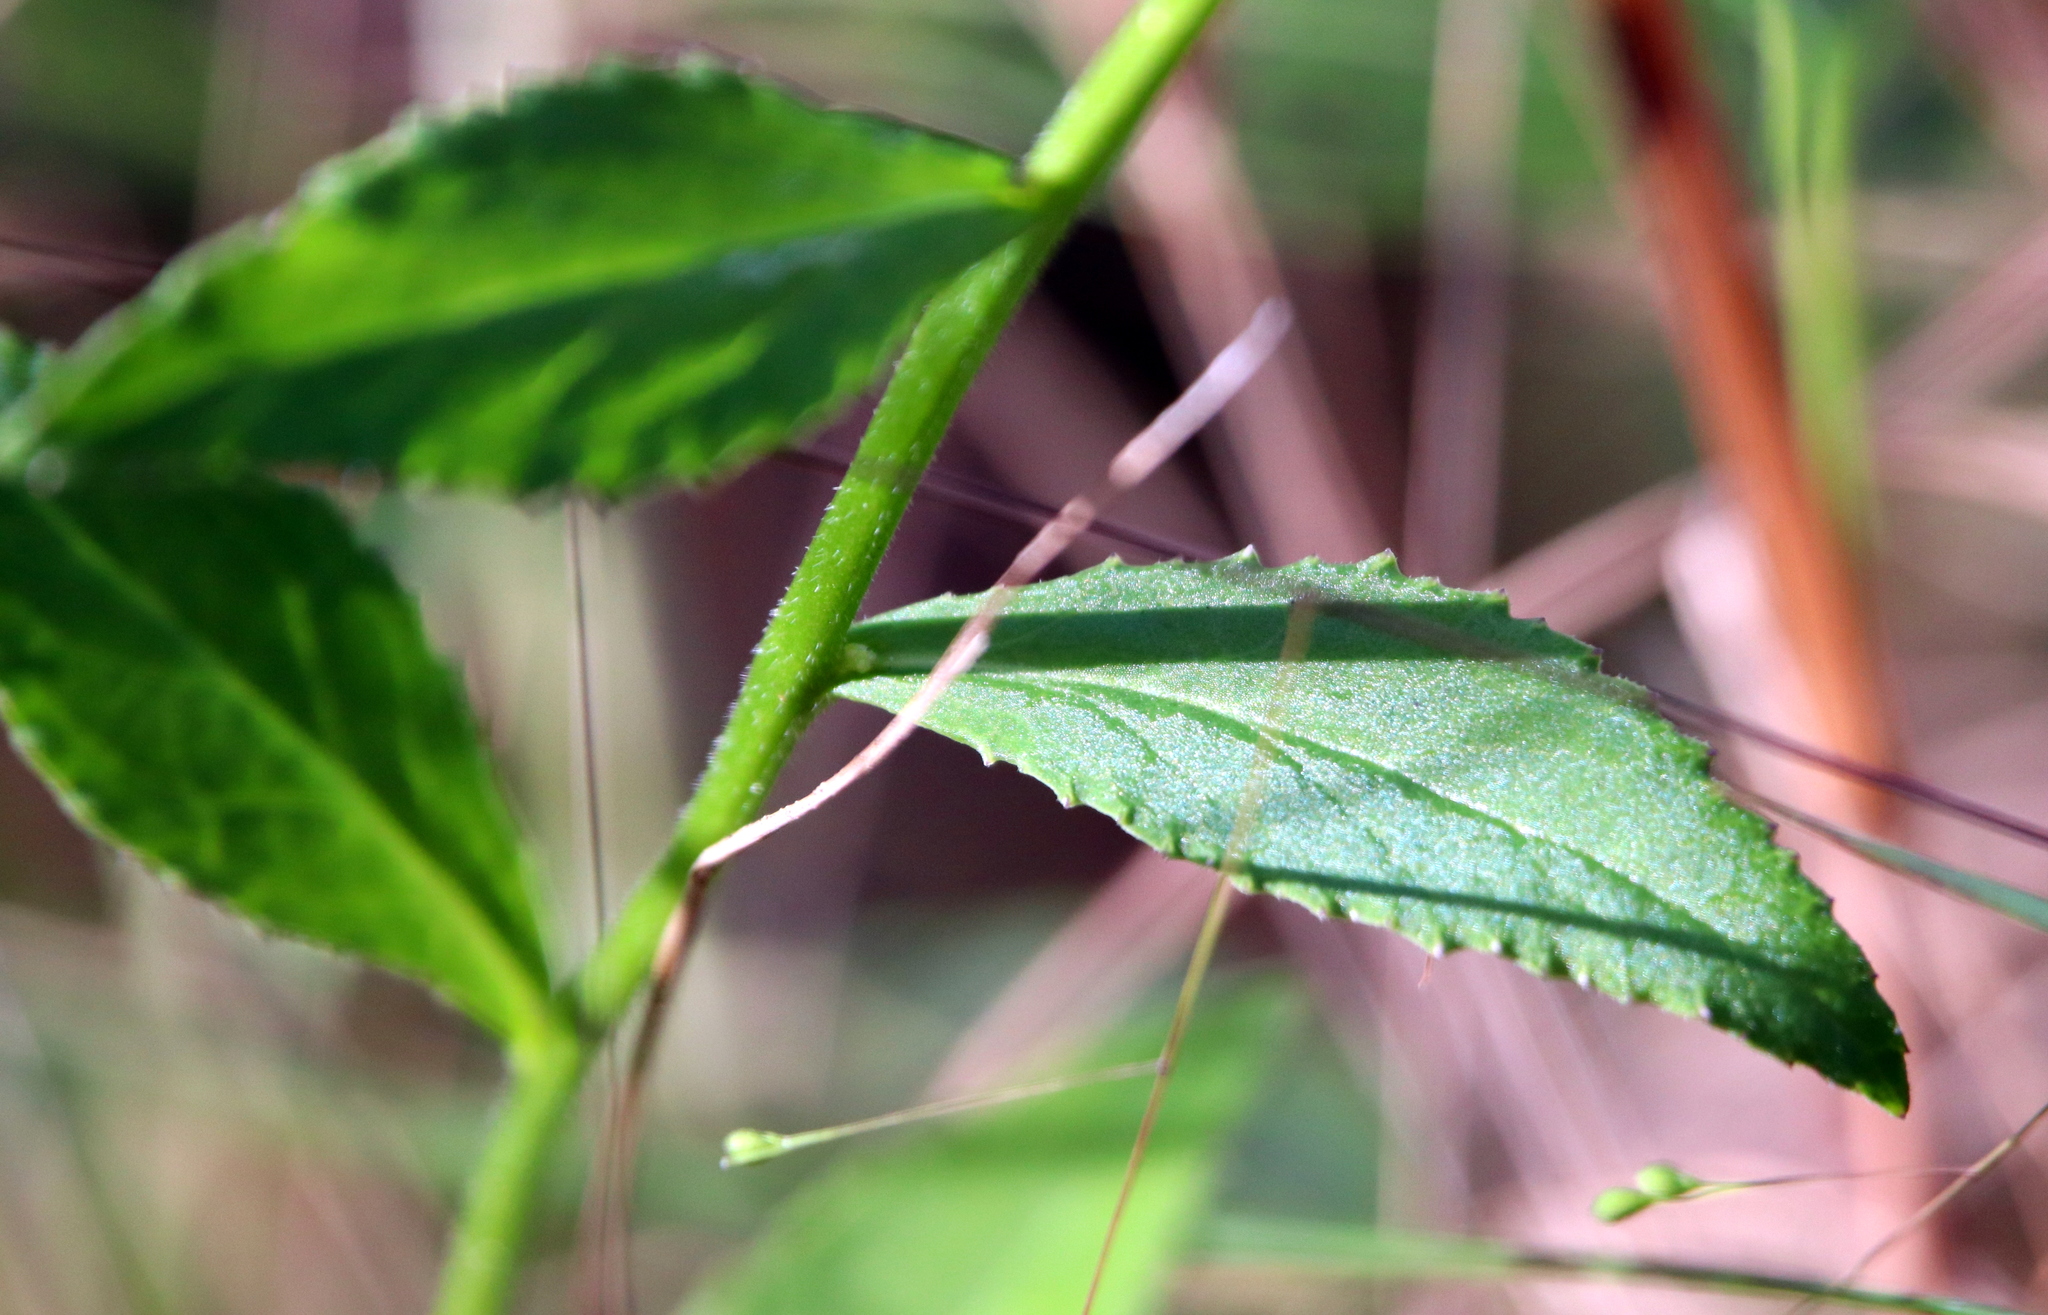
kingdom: Plantae
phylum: Tracheophyta
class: Magnoliopsida
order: Asterales
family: Campanulaceae
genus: Lobelia
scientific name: Lobelia rogersii
